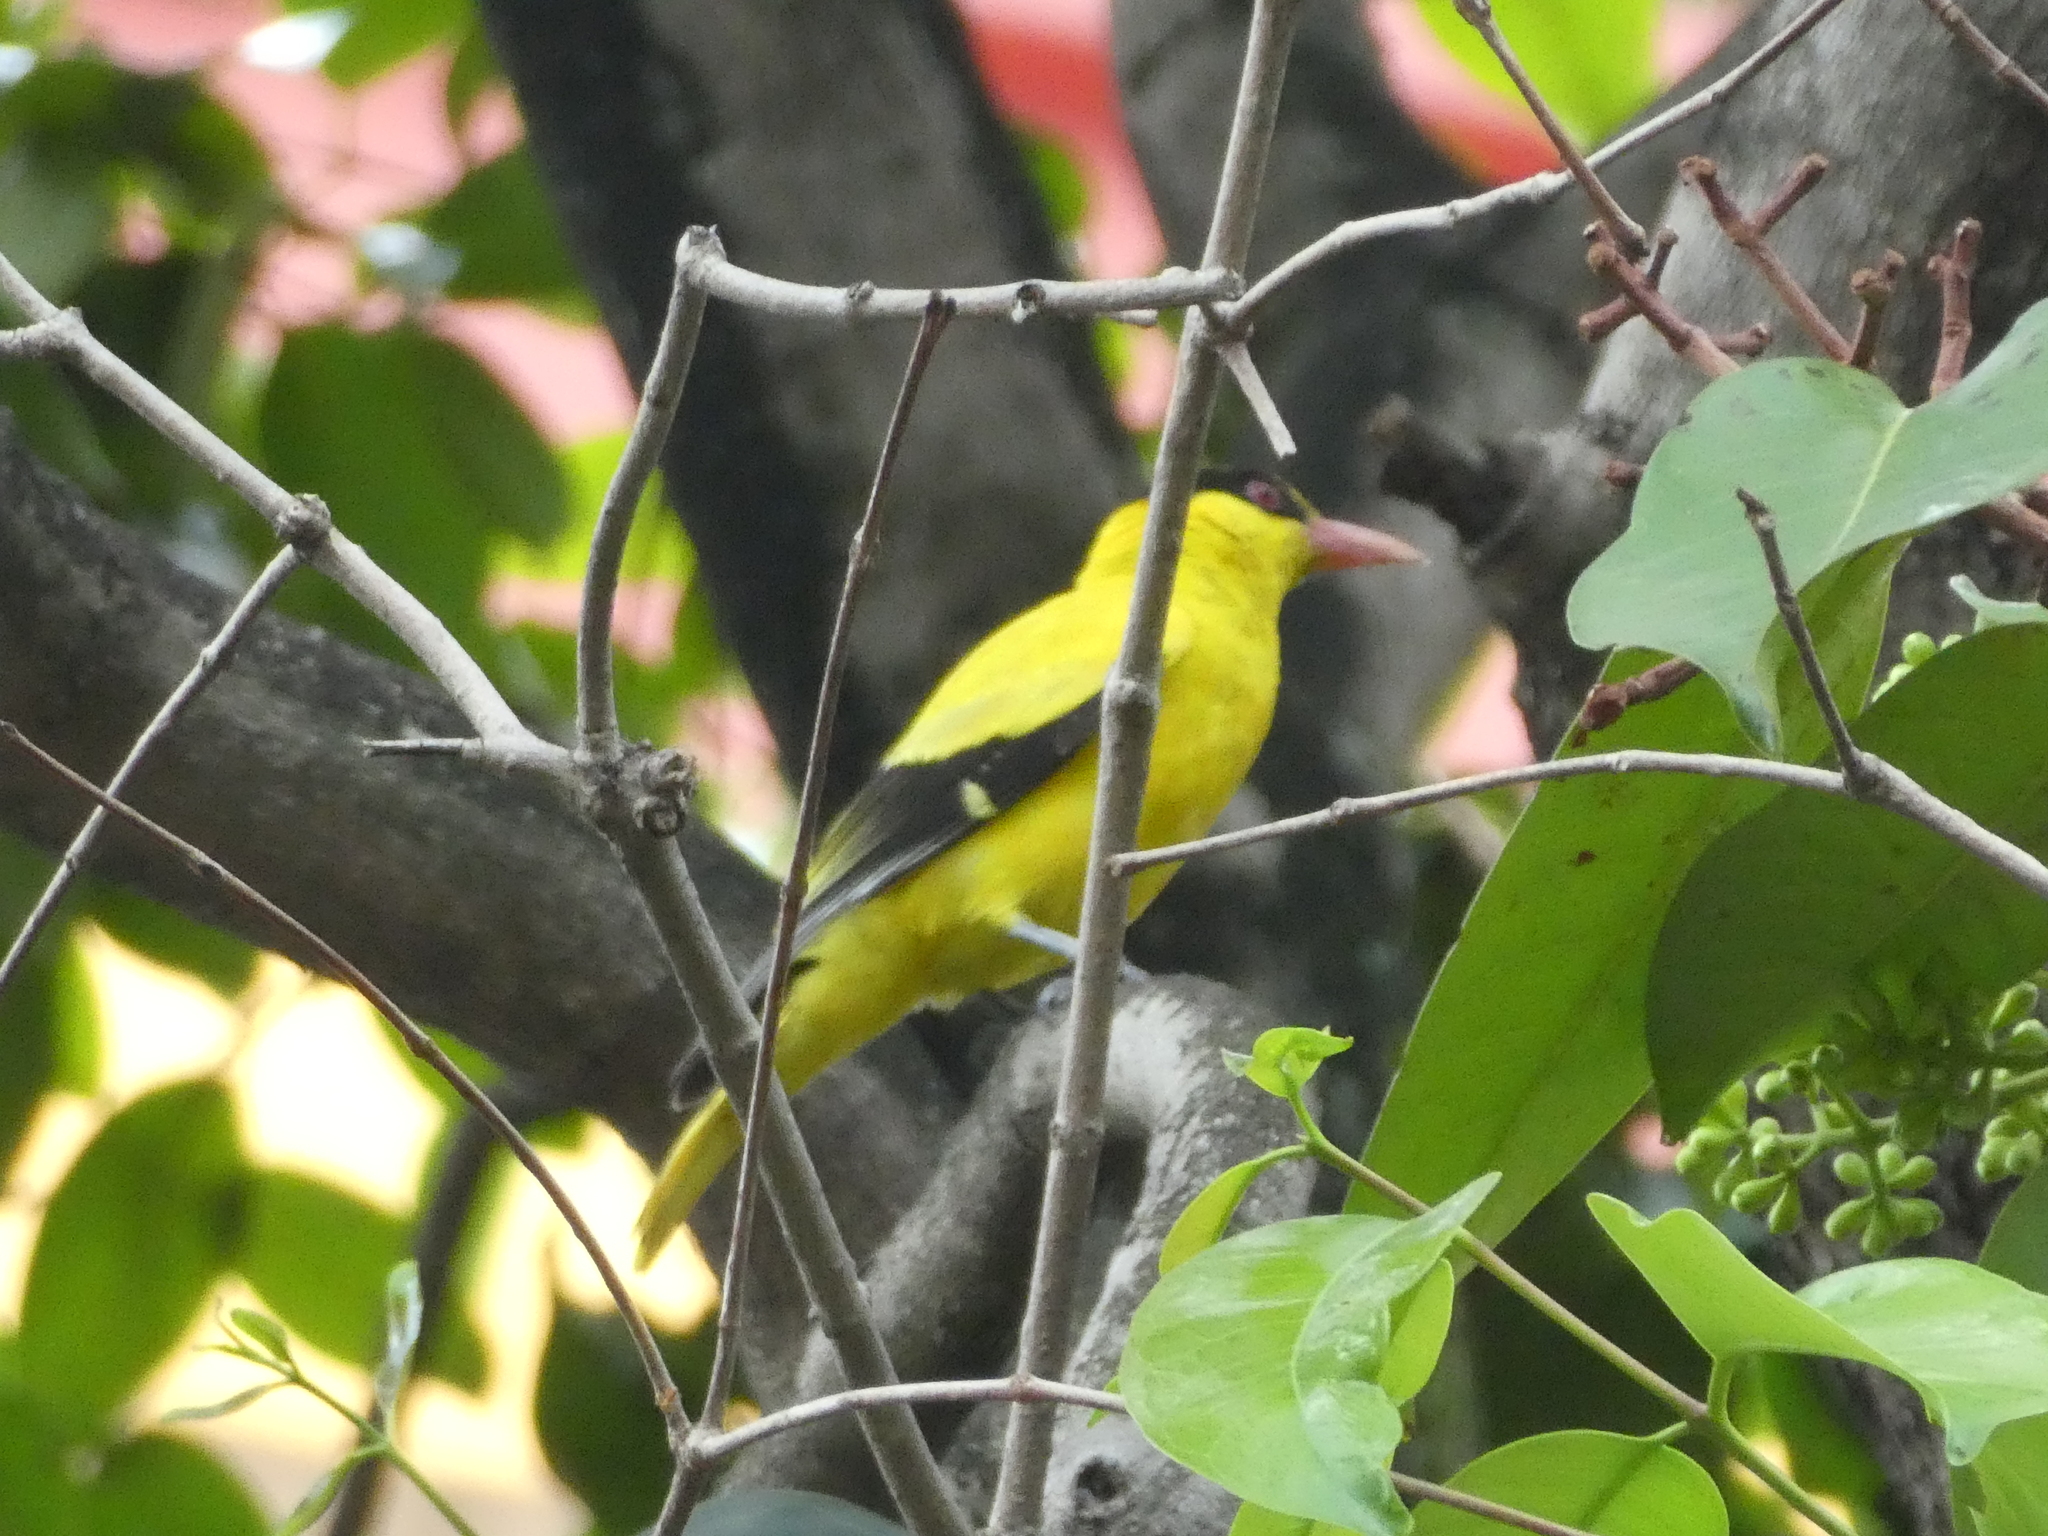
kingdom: Animalia
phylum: Chordata
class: Aves
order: Passeriformes
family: Oriolidae
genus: Oriolus
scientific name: Oriolus chinensis
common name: Black-naped oriole
